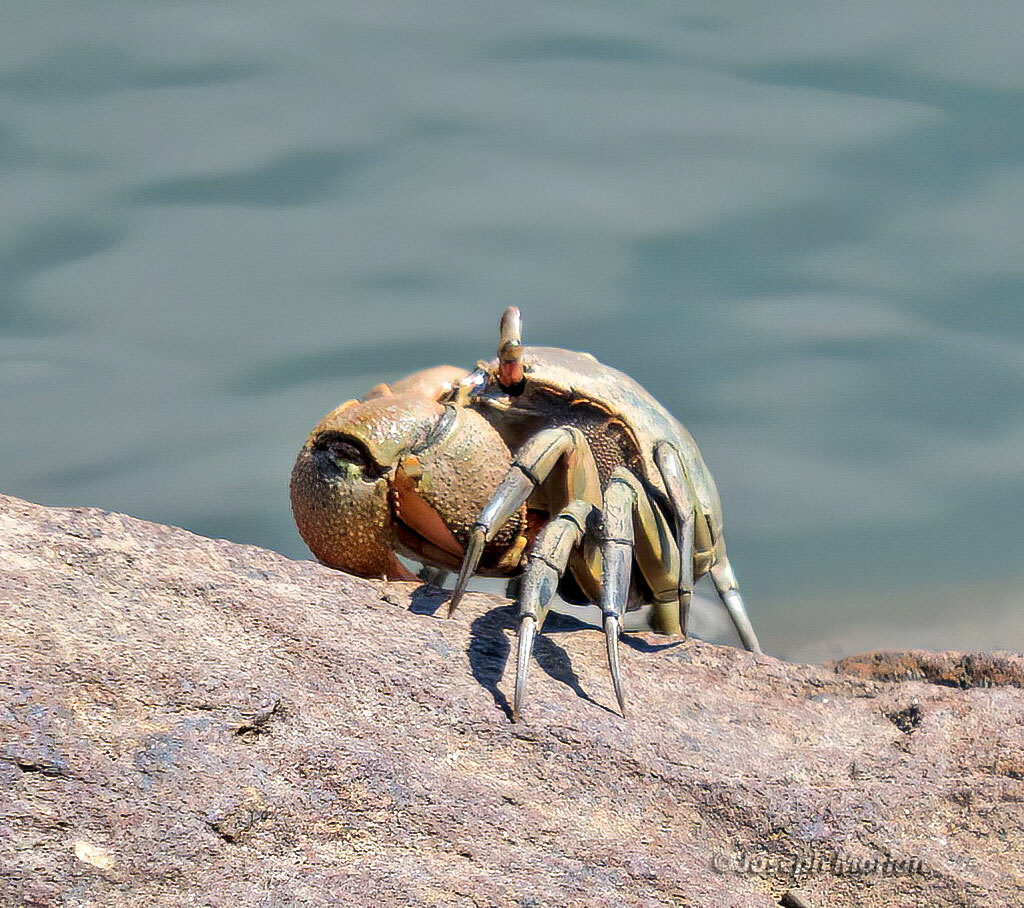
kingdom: Animalia
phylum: Arthropoda
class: Malacostraca
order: Decapoda
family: Varunidae
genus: Neohelice
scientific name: Neohelice granulata
